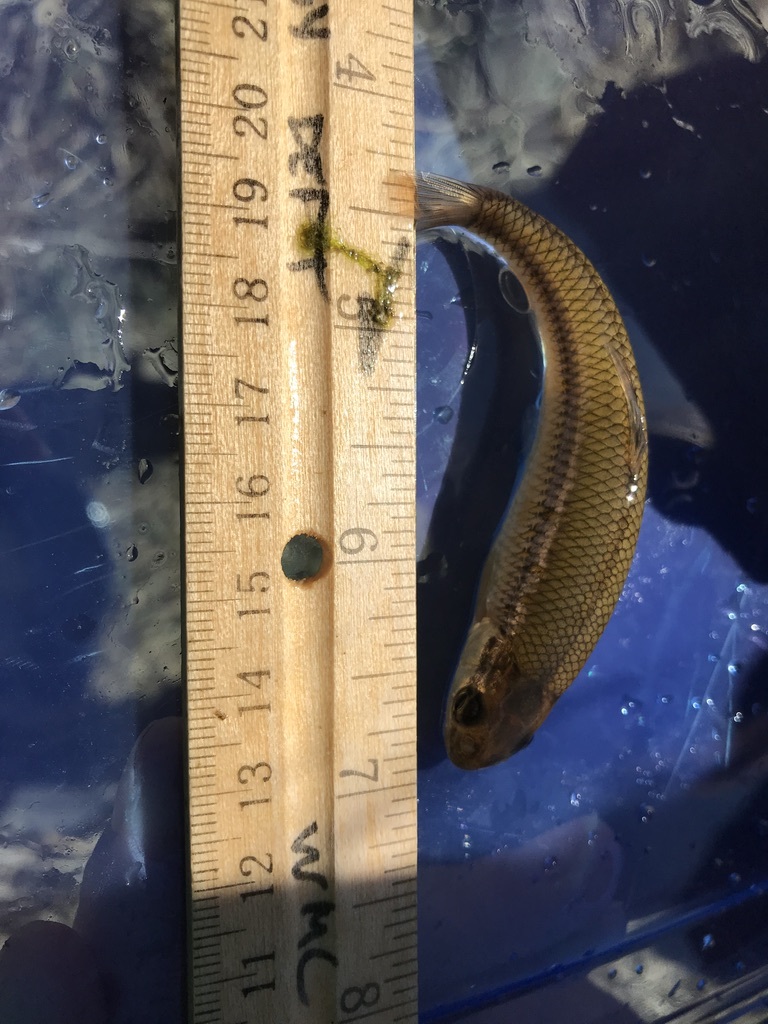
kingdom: Animalia
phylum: Chordata
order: Cypriniformes
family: Cyprinidae
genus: Pimephales
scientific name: Pimephales notatus
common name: Bluntnose minnow
